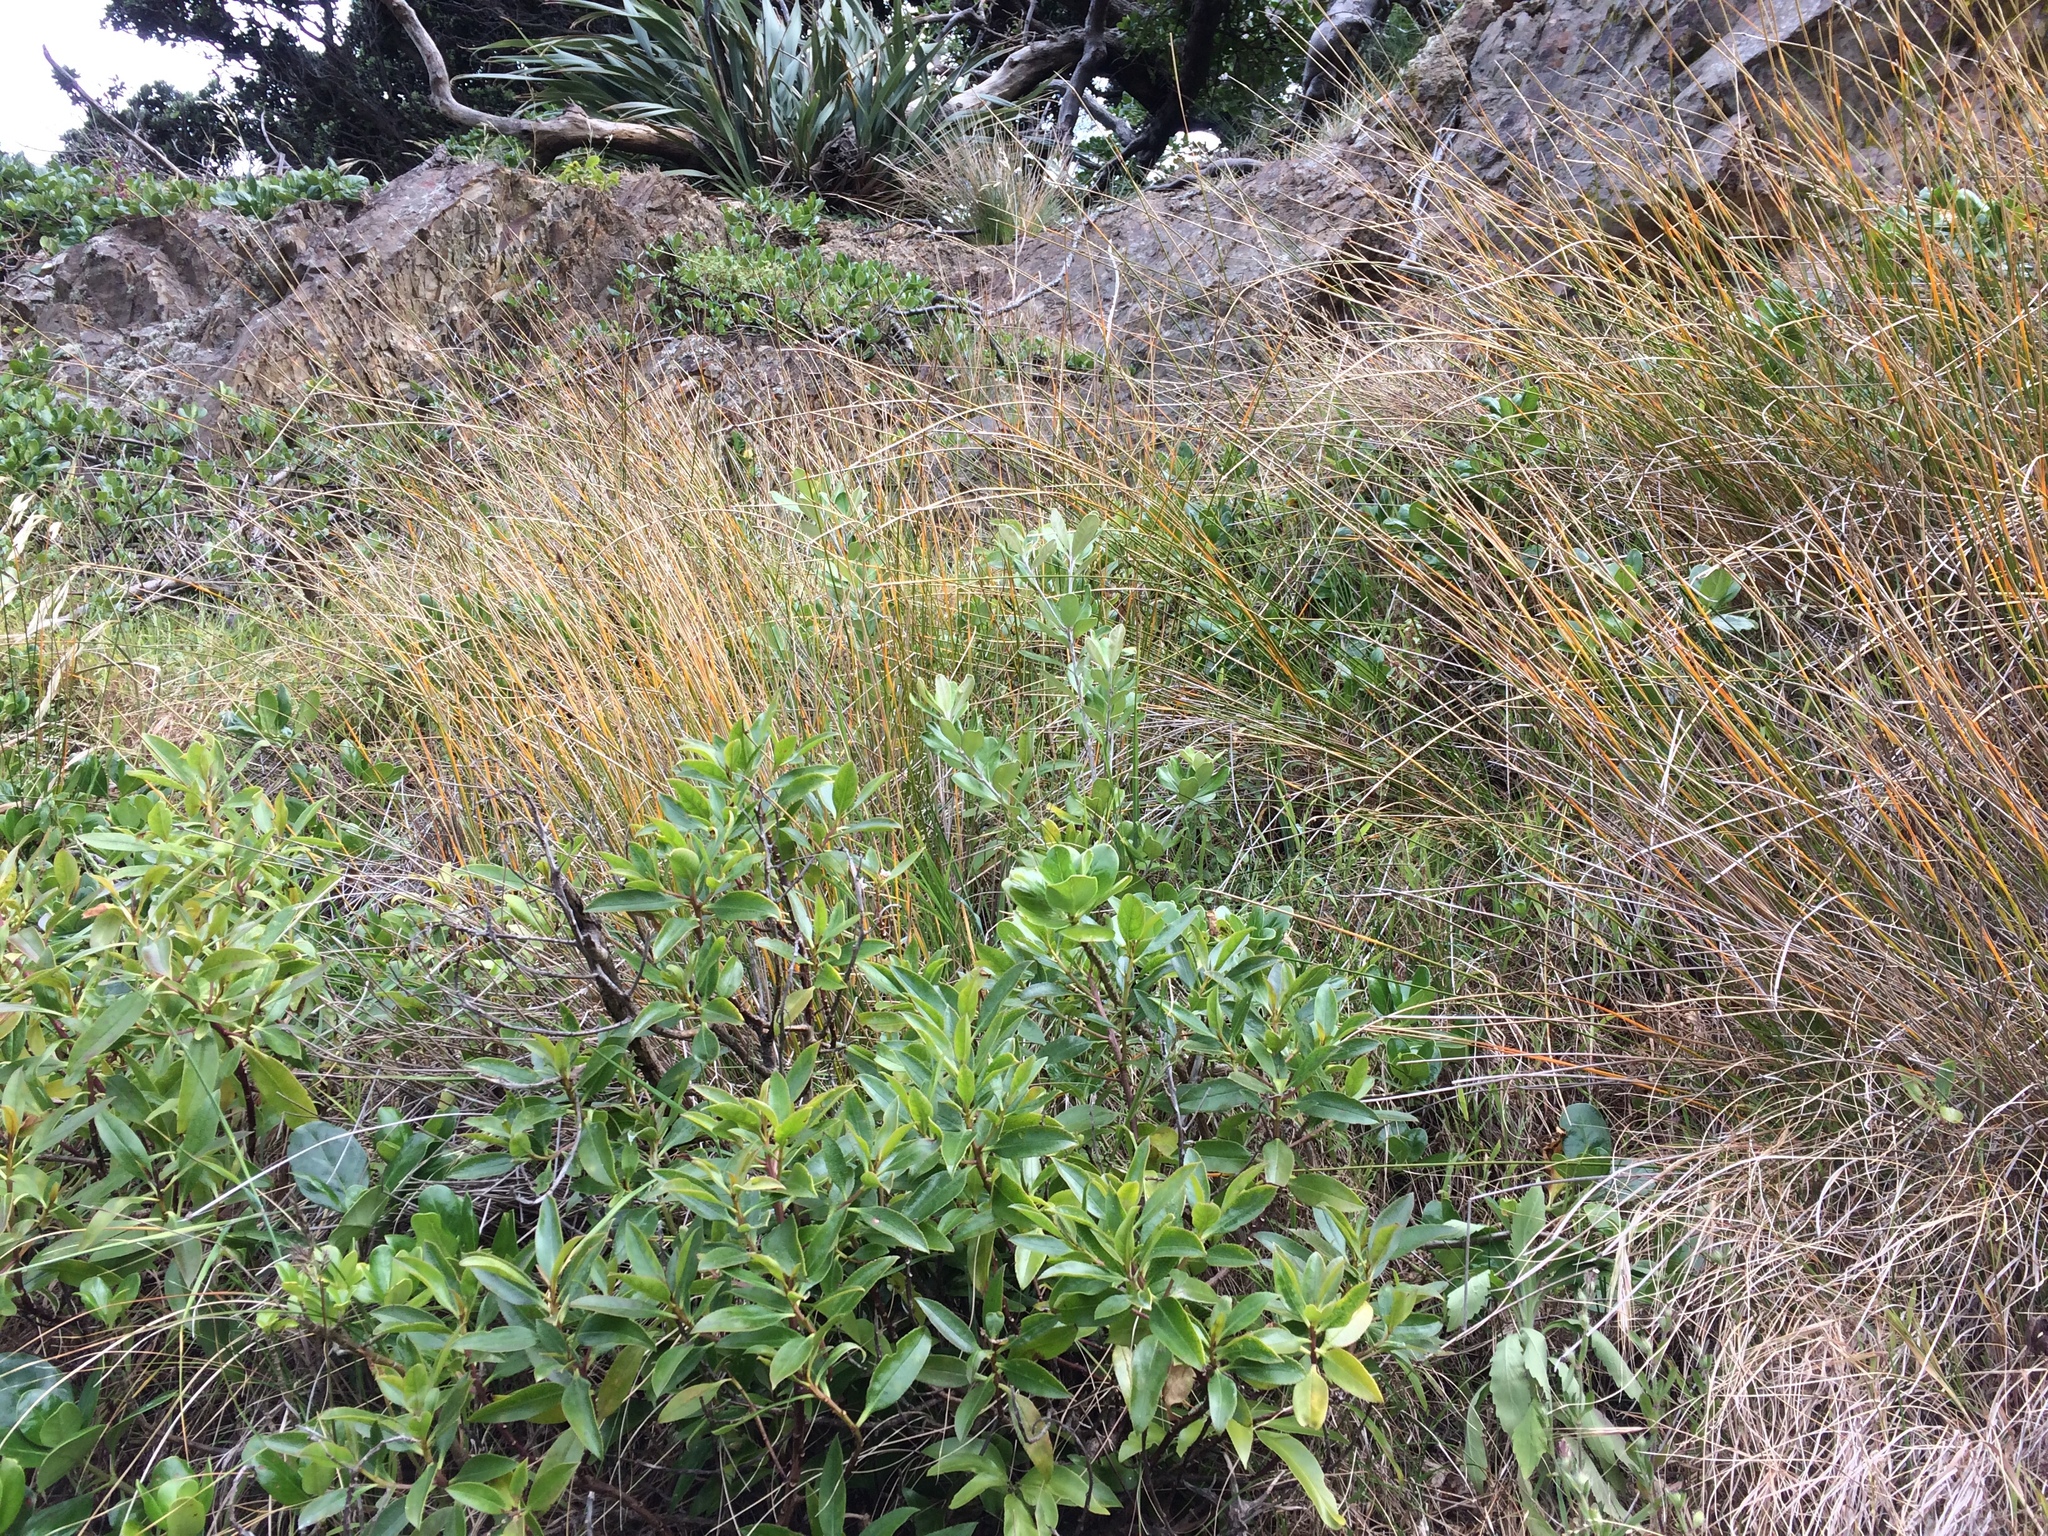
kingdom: Plantae
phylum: Tracheophyta
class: Magnoliopsida
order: Apiales
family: Pittosporaceae
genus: Pittosporum
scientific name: Pittosporum crassifolium
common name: Karo
